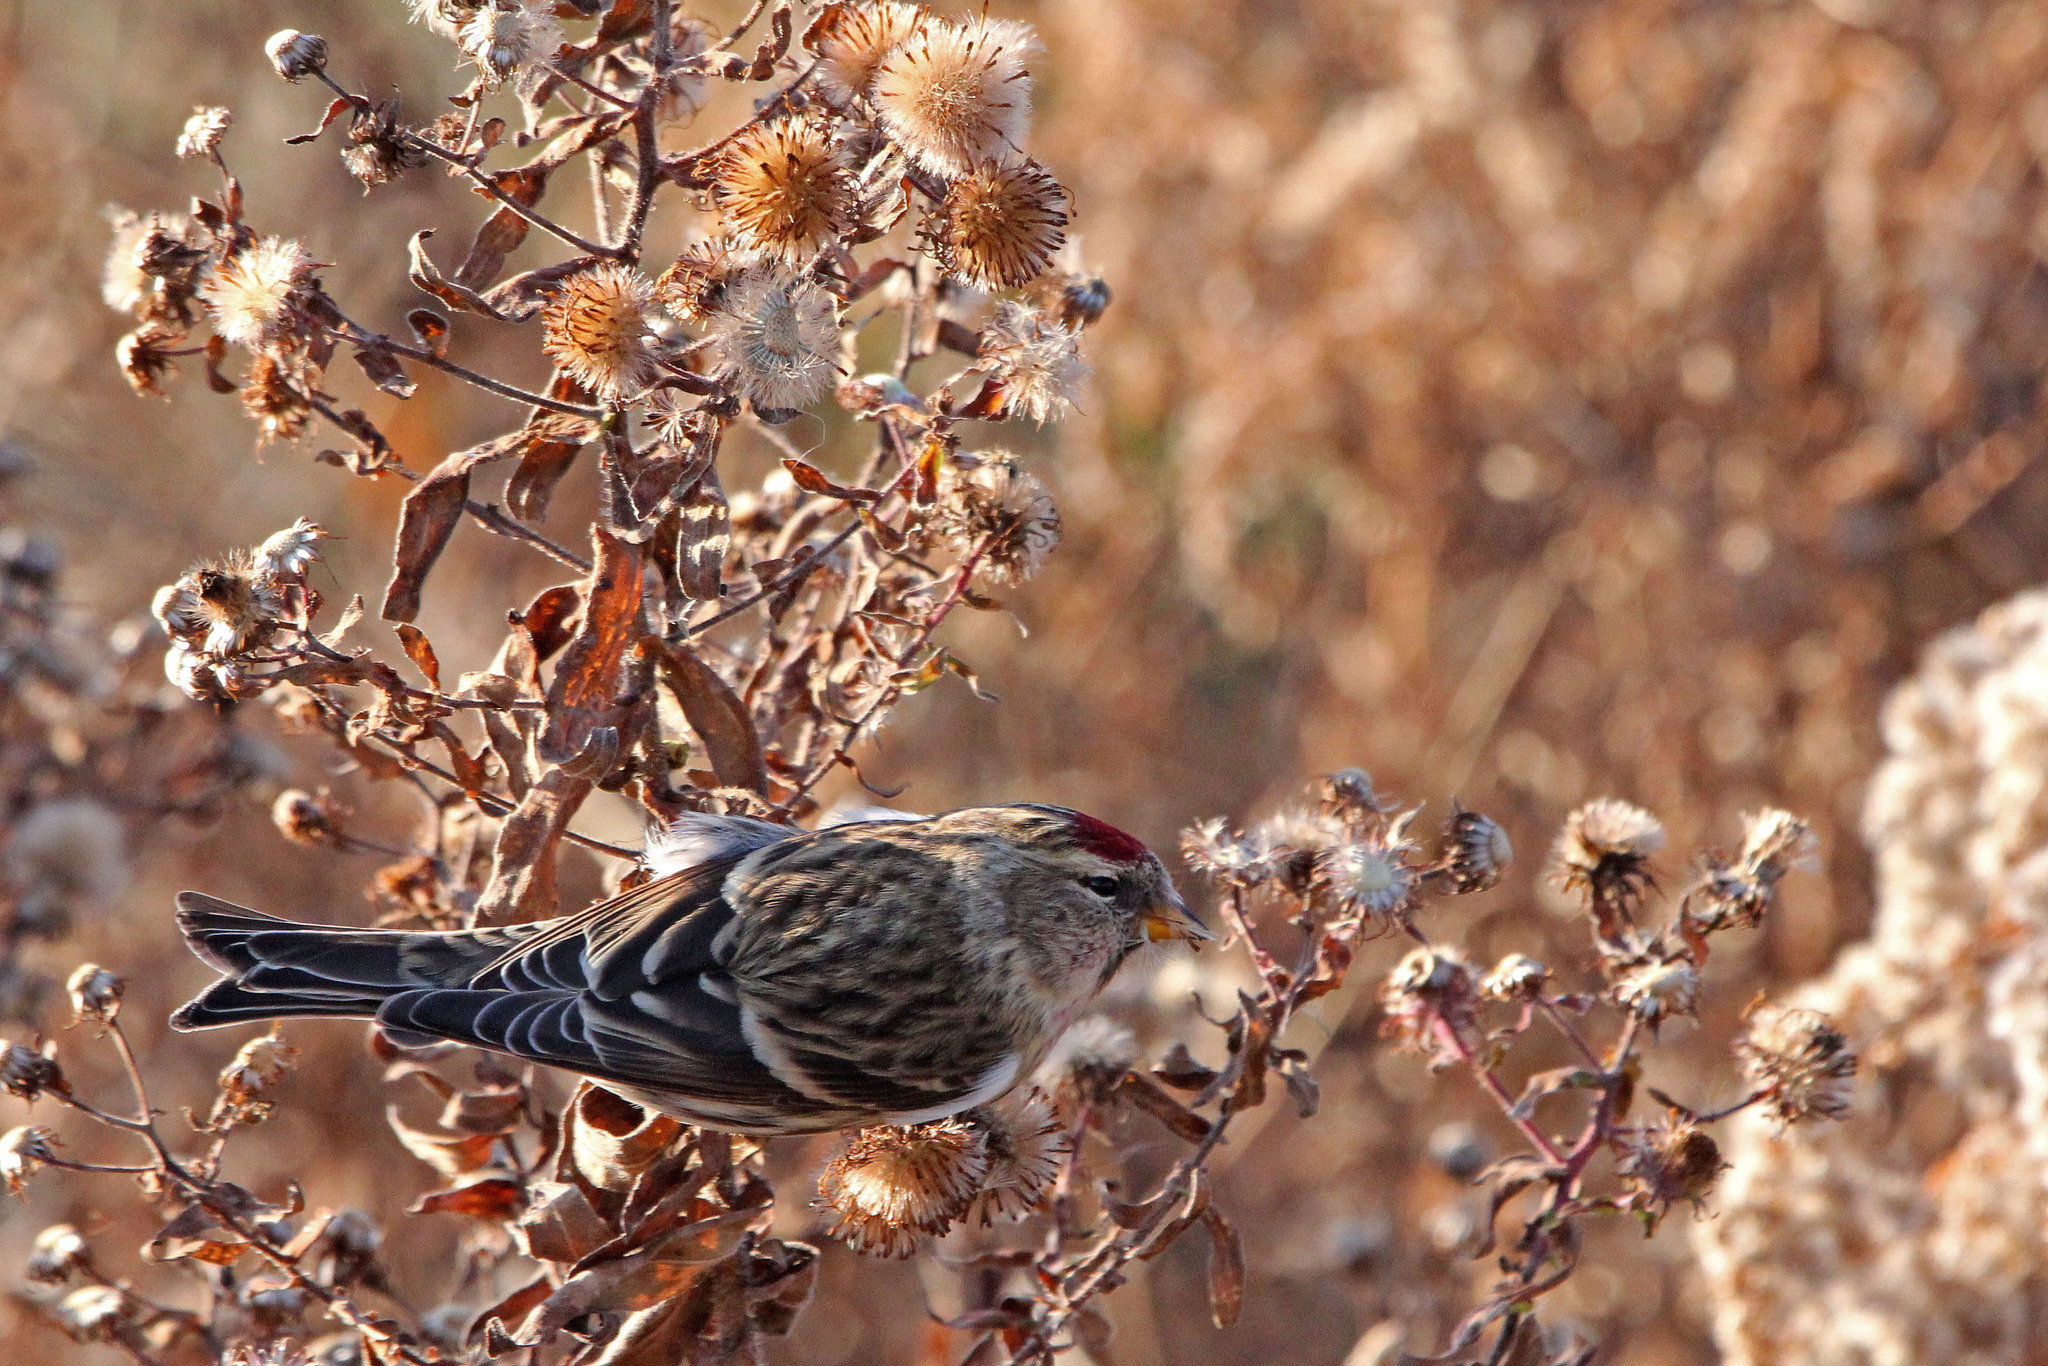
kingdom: Animalia
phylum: Chordata
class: Aves
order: Passeriformes
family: Fringillidae
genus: Acanthis
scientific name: Acanthis flammea
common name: Common redpoll
